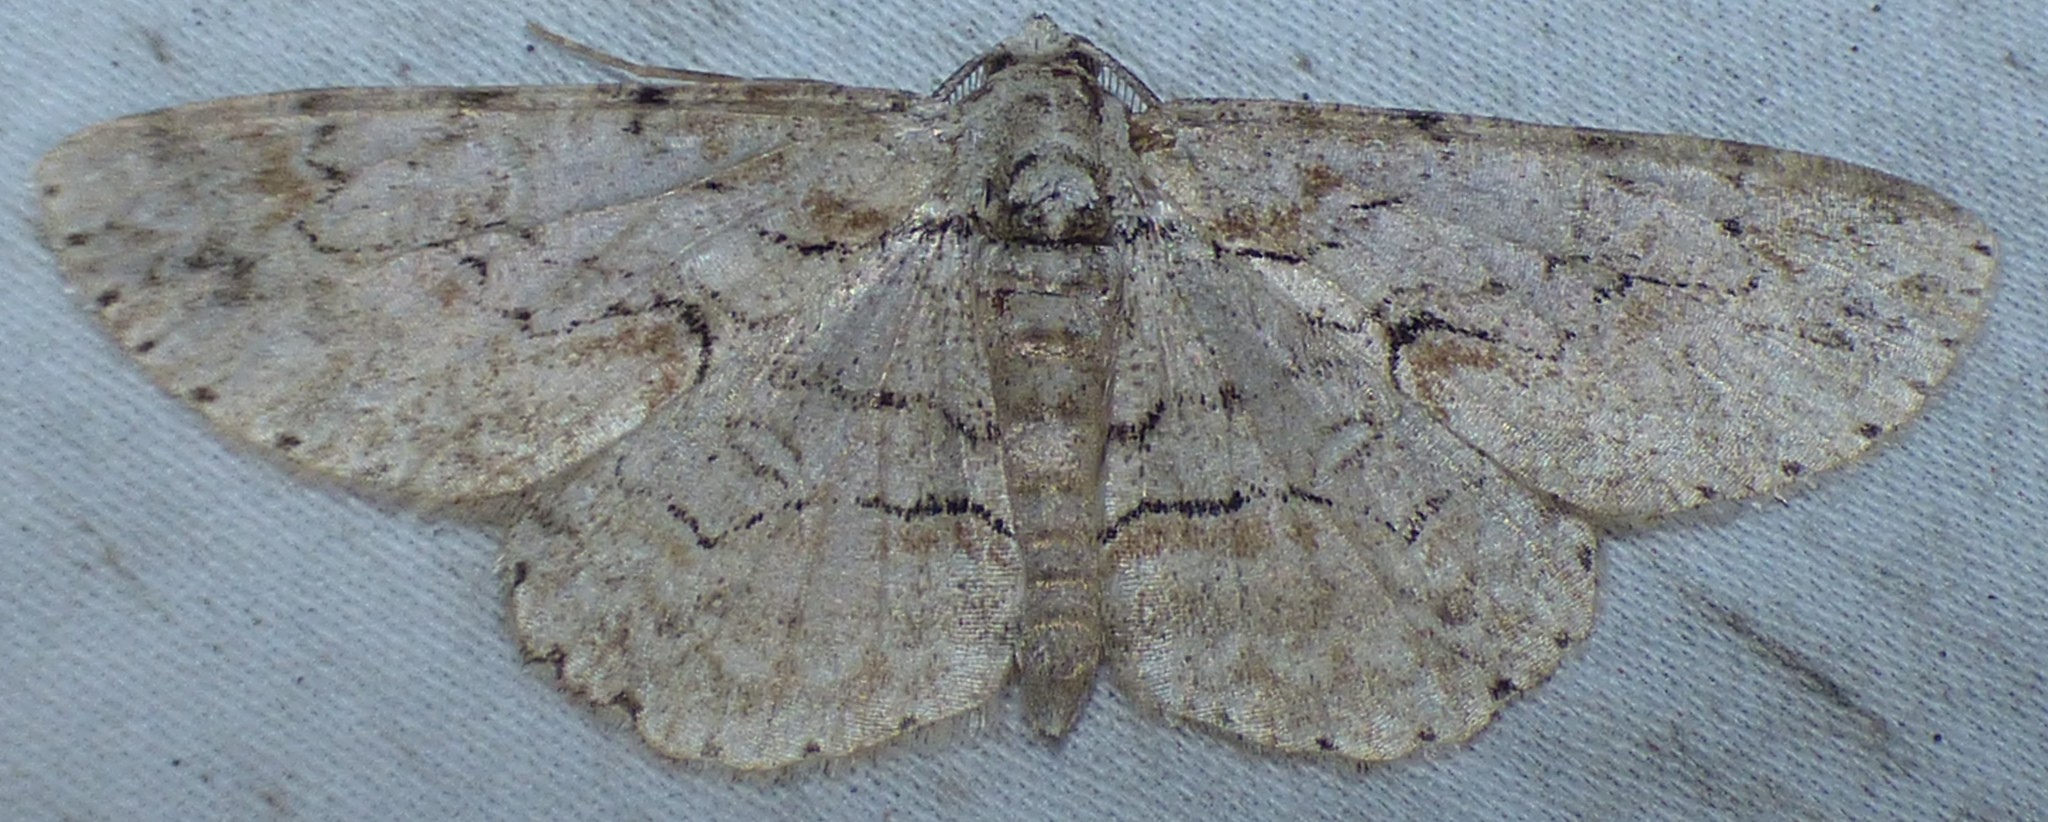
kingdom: Animalia
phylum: Arthropoda
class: Insecta
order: Lepidoptera
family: Geometridae
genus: Iridopsis
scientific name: Iridopsis defectaria
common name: Brown-shaded gray
